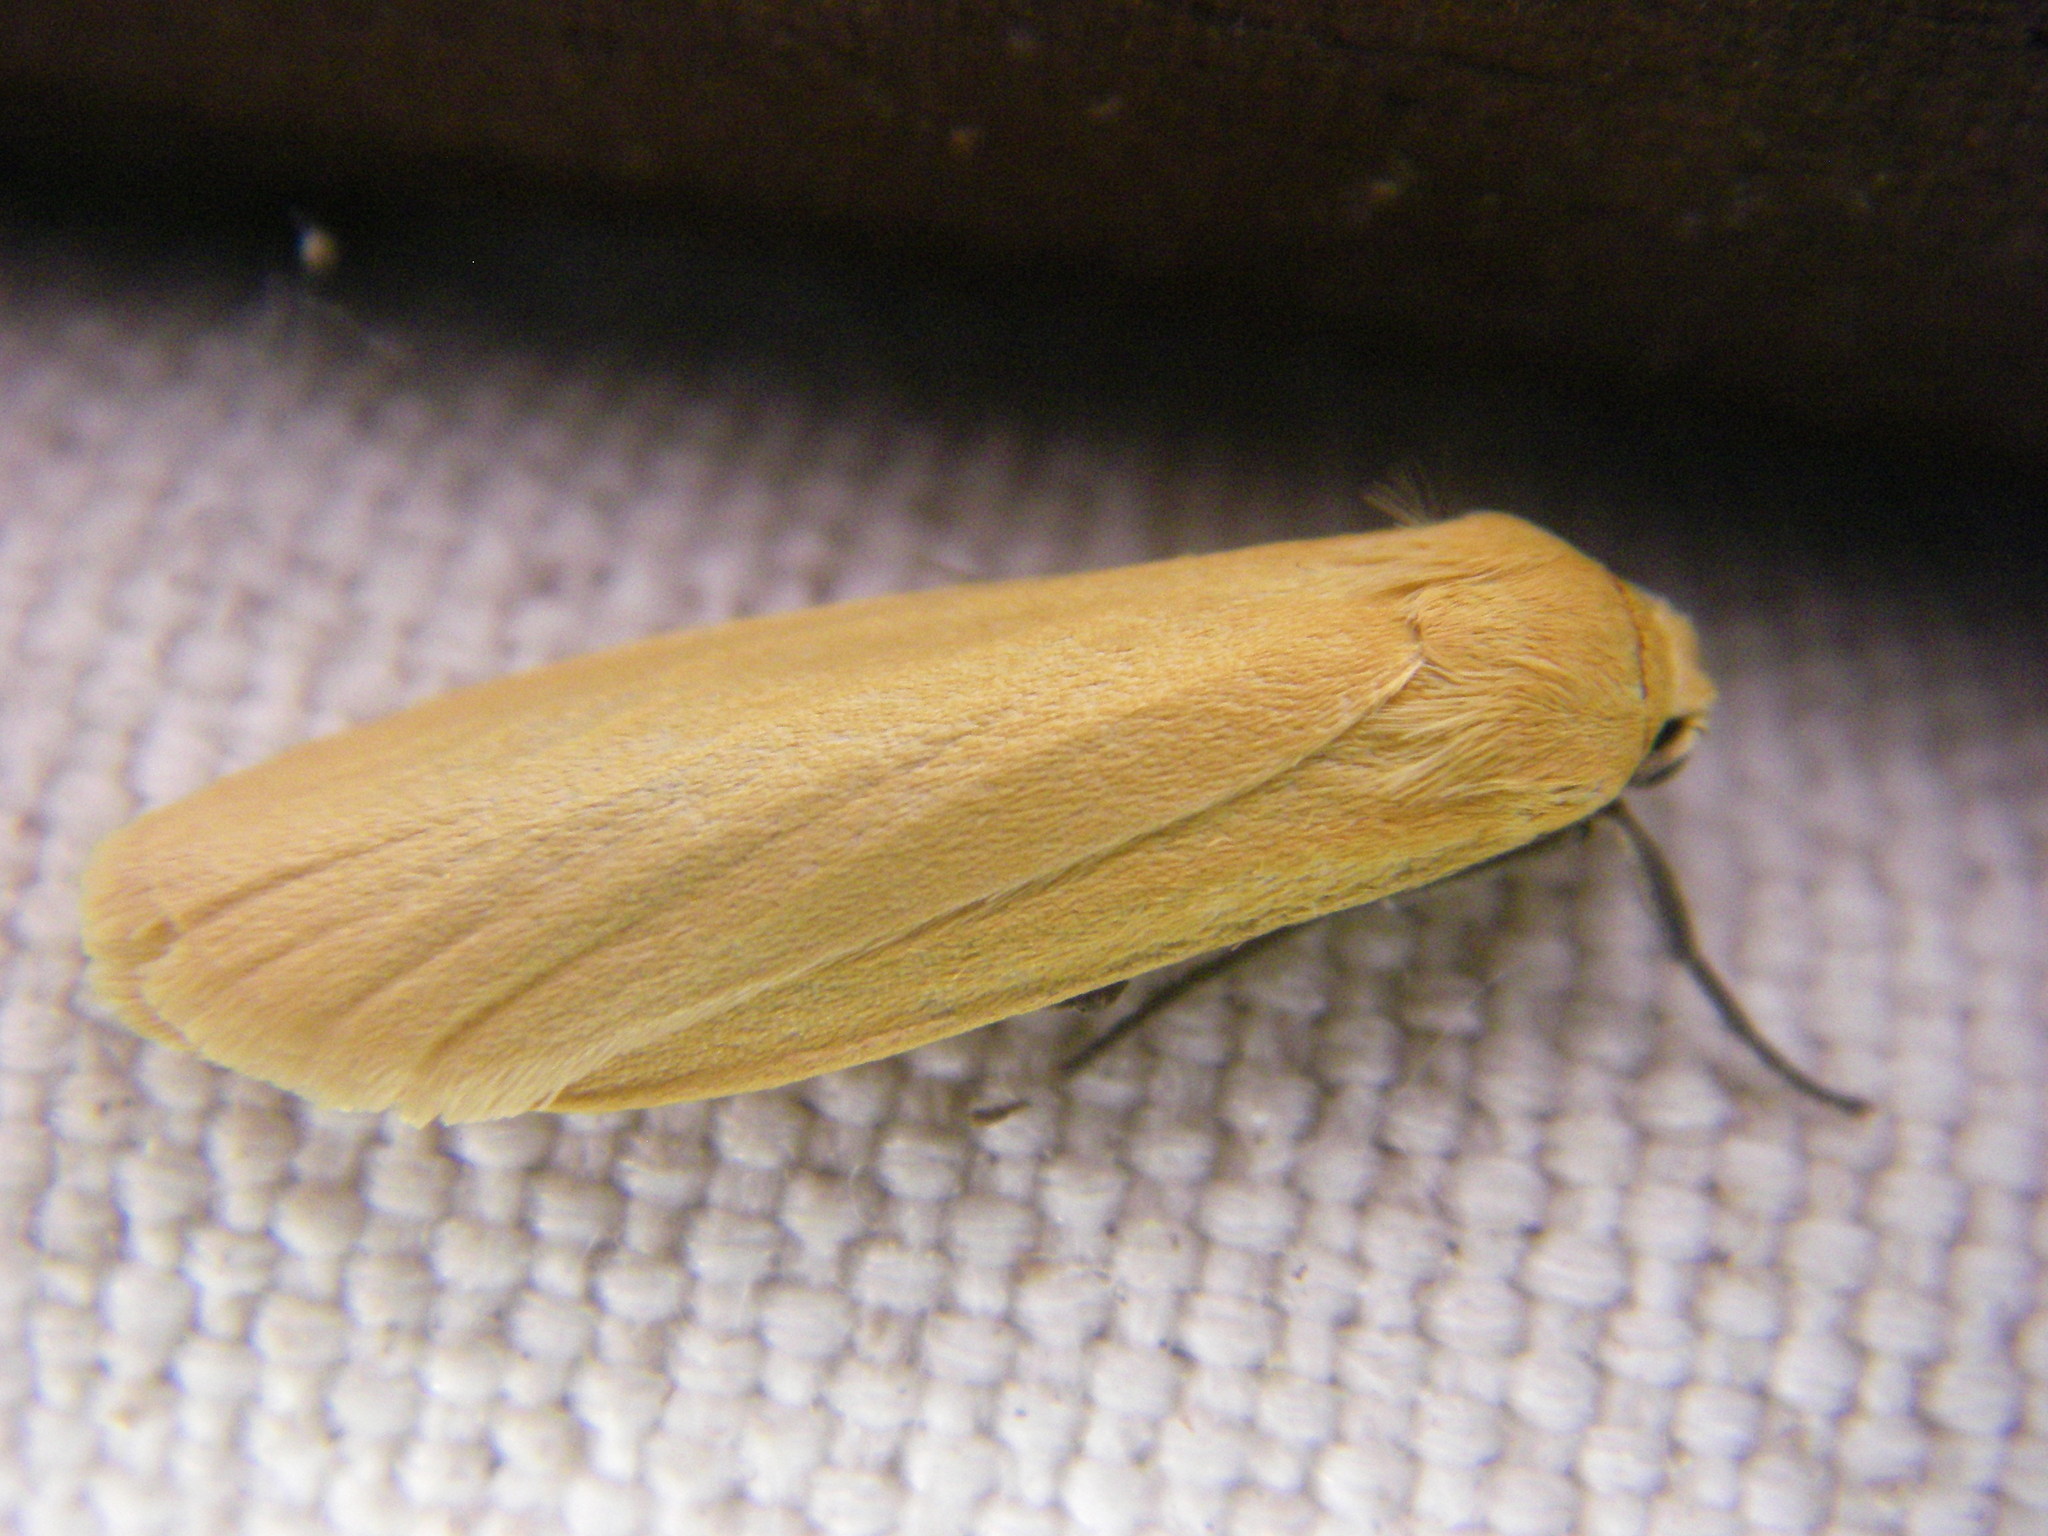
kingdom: Animalia
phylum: Arthropoda
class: Insecta
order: Lepidoptera
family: Erebidae
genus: Wittia
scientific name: Wittia sororcula
